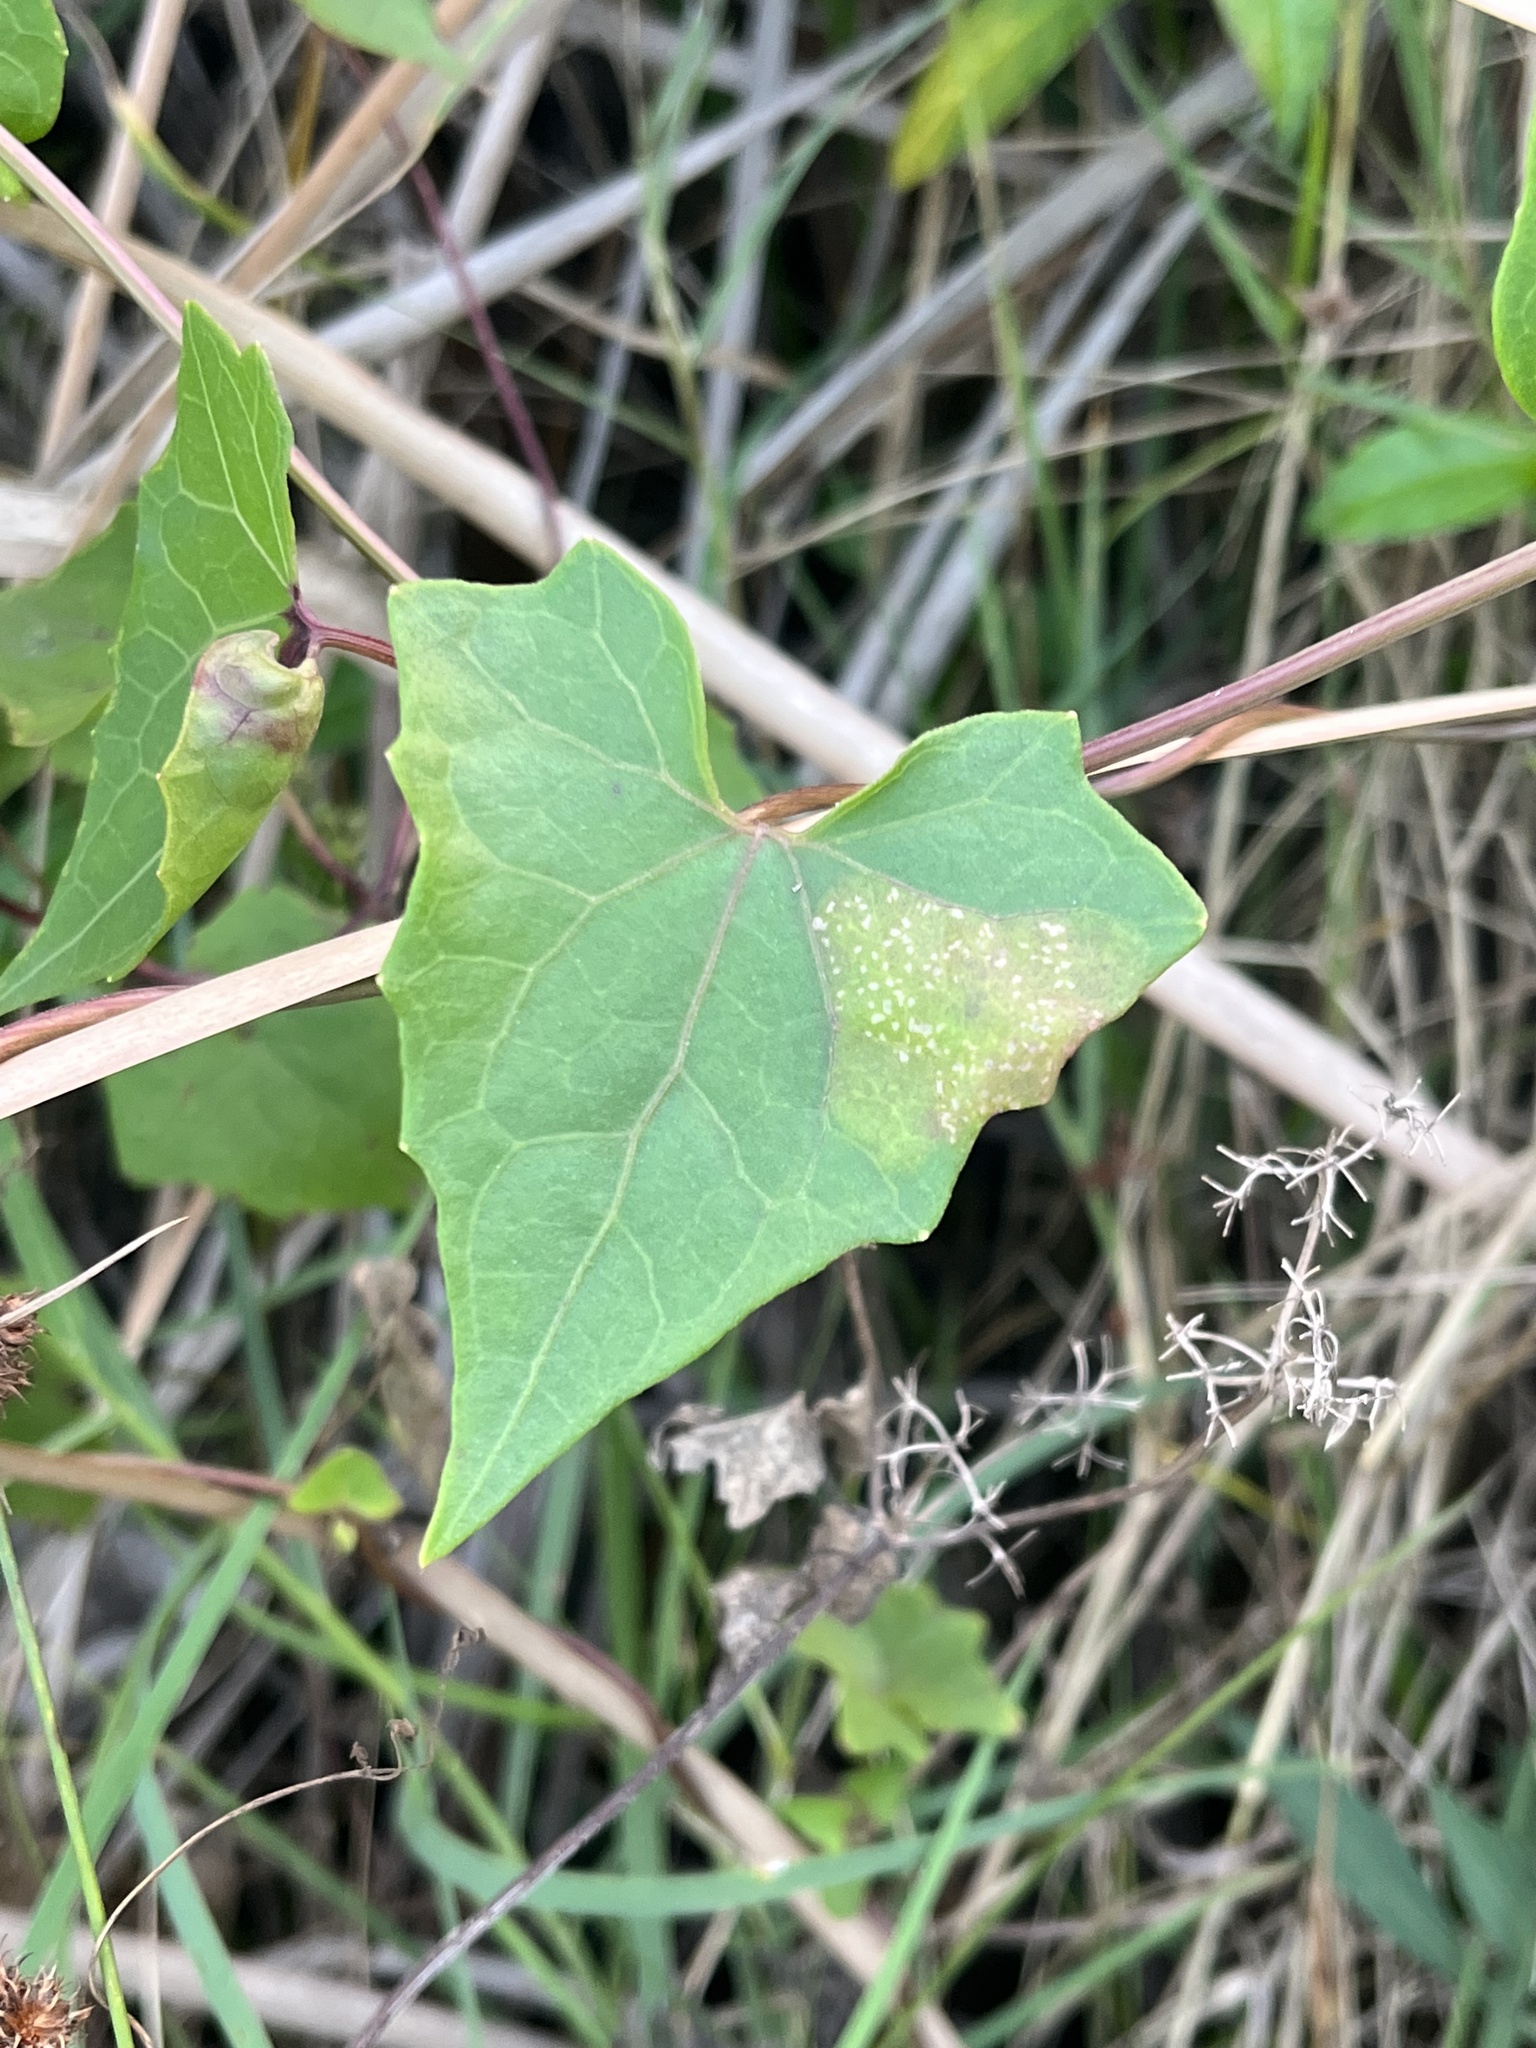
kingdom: Animalia
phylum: Arthropoda
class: Insecta
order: Lepidoptera
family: Gracillariidae
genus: Leucospilapteryx
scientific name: Leucospilapteryx venustella
